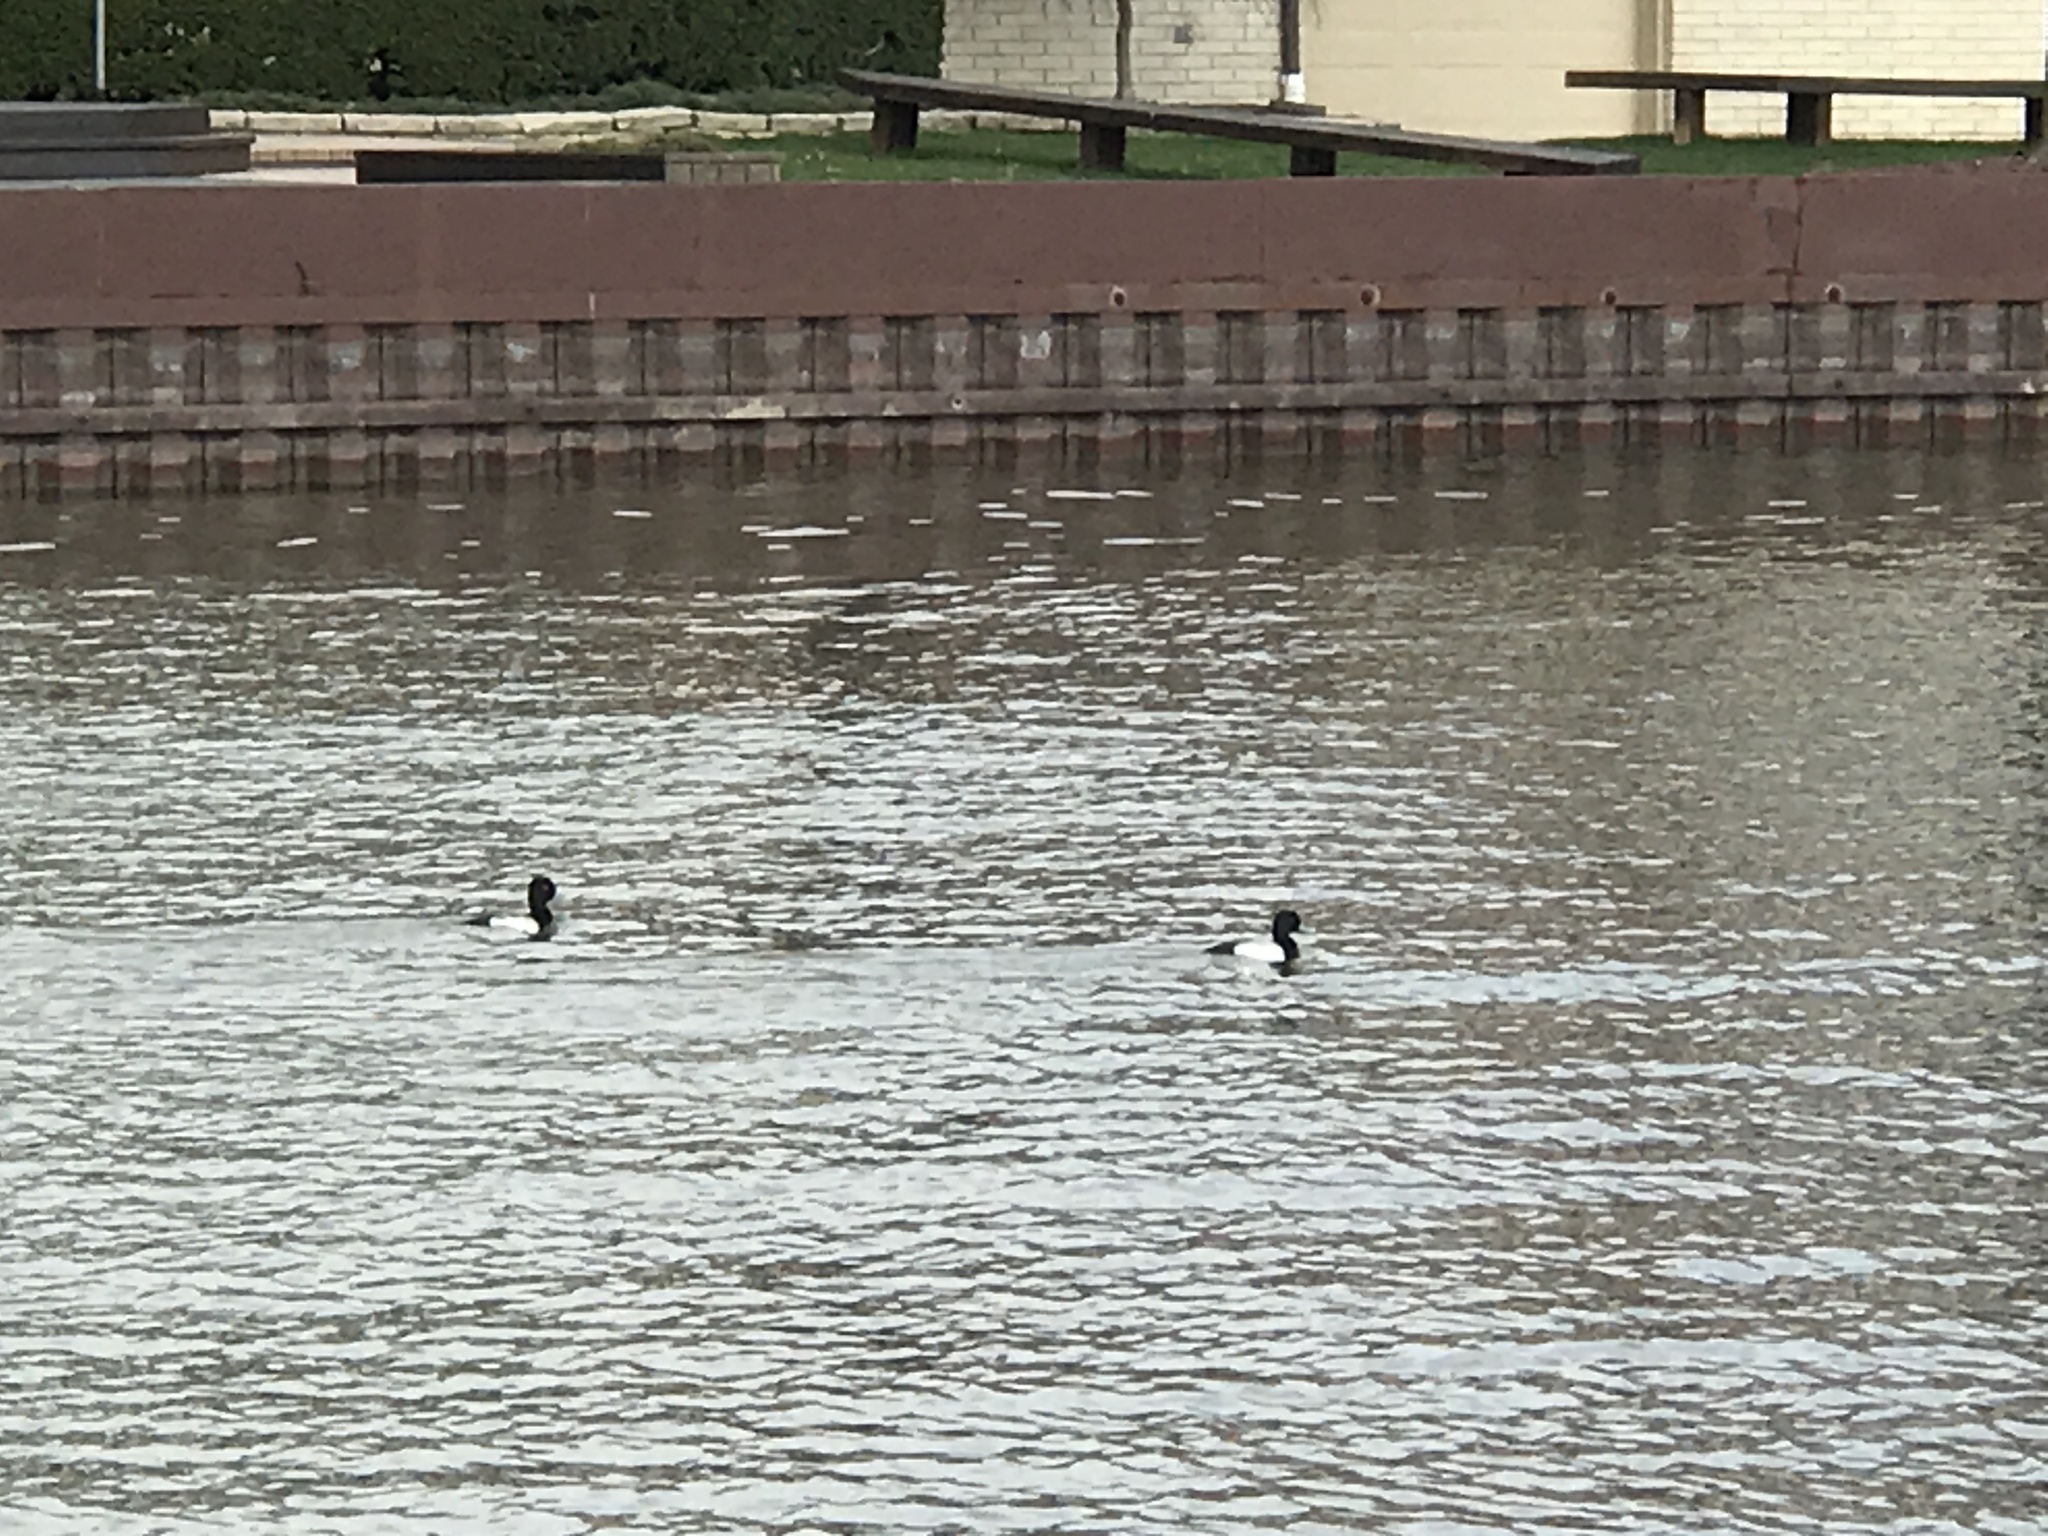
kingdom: Animalia
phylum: Chordata
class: Aves
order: Anseriformes
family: Anatidae
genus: Aythya
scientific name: Aythya affinis
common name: Lesser scaup
